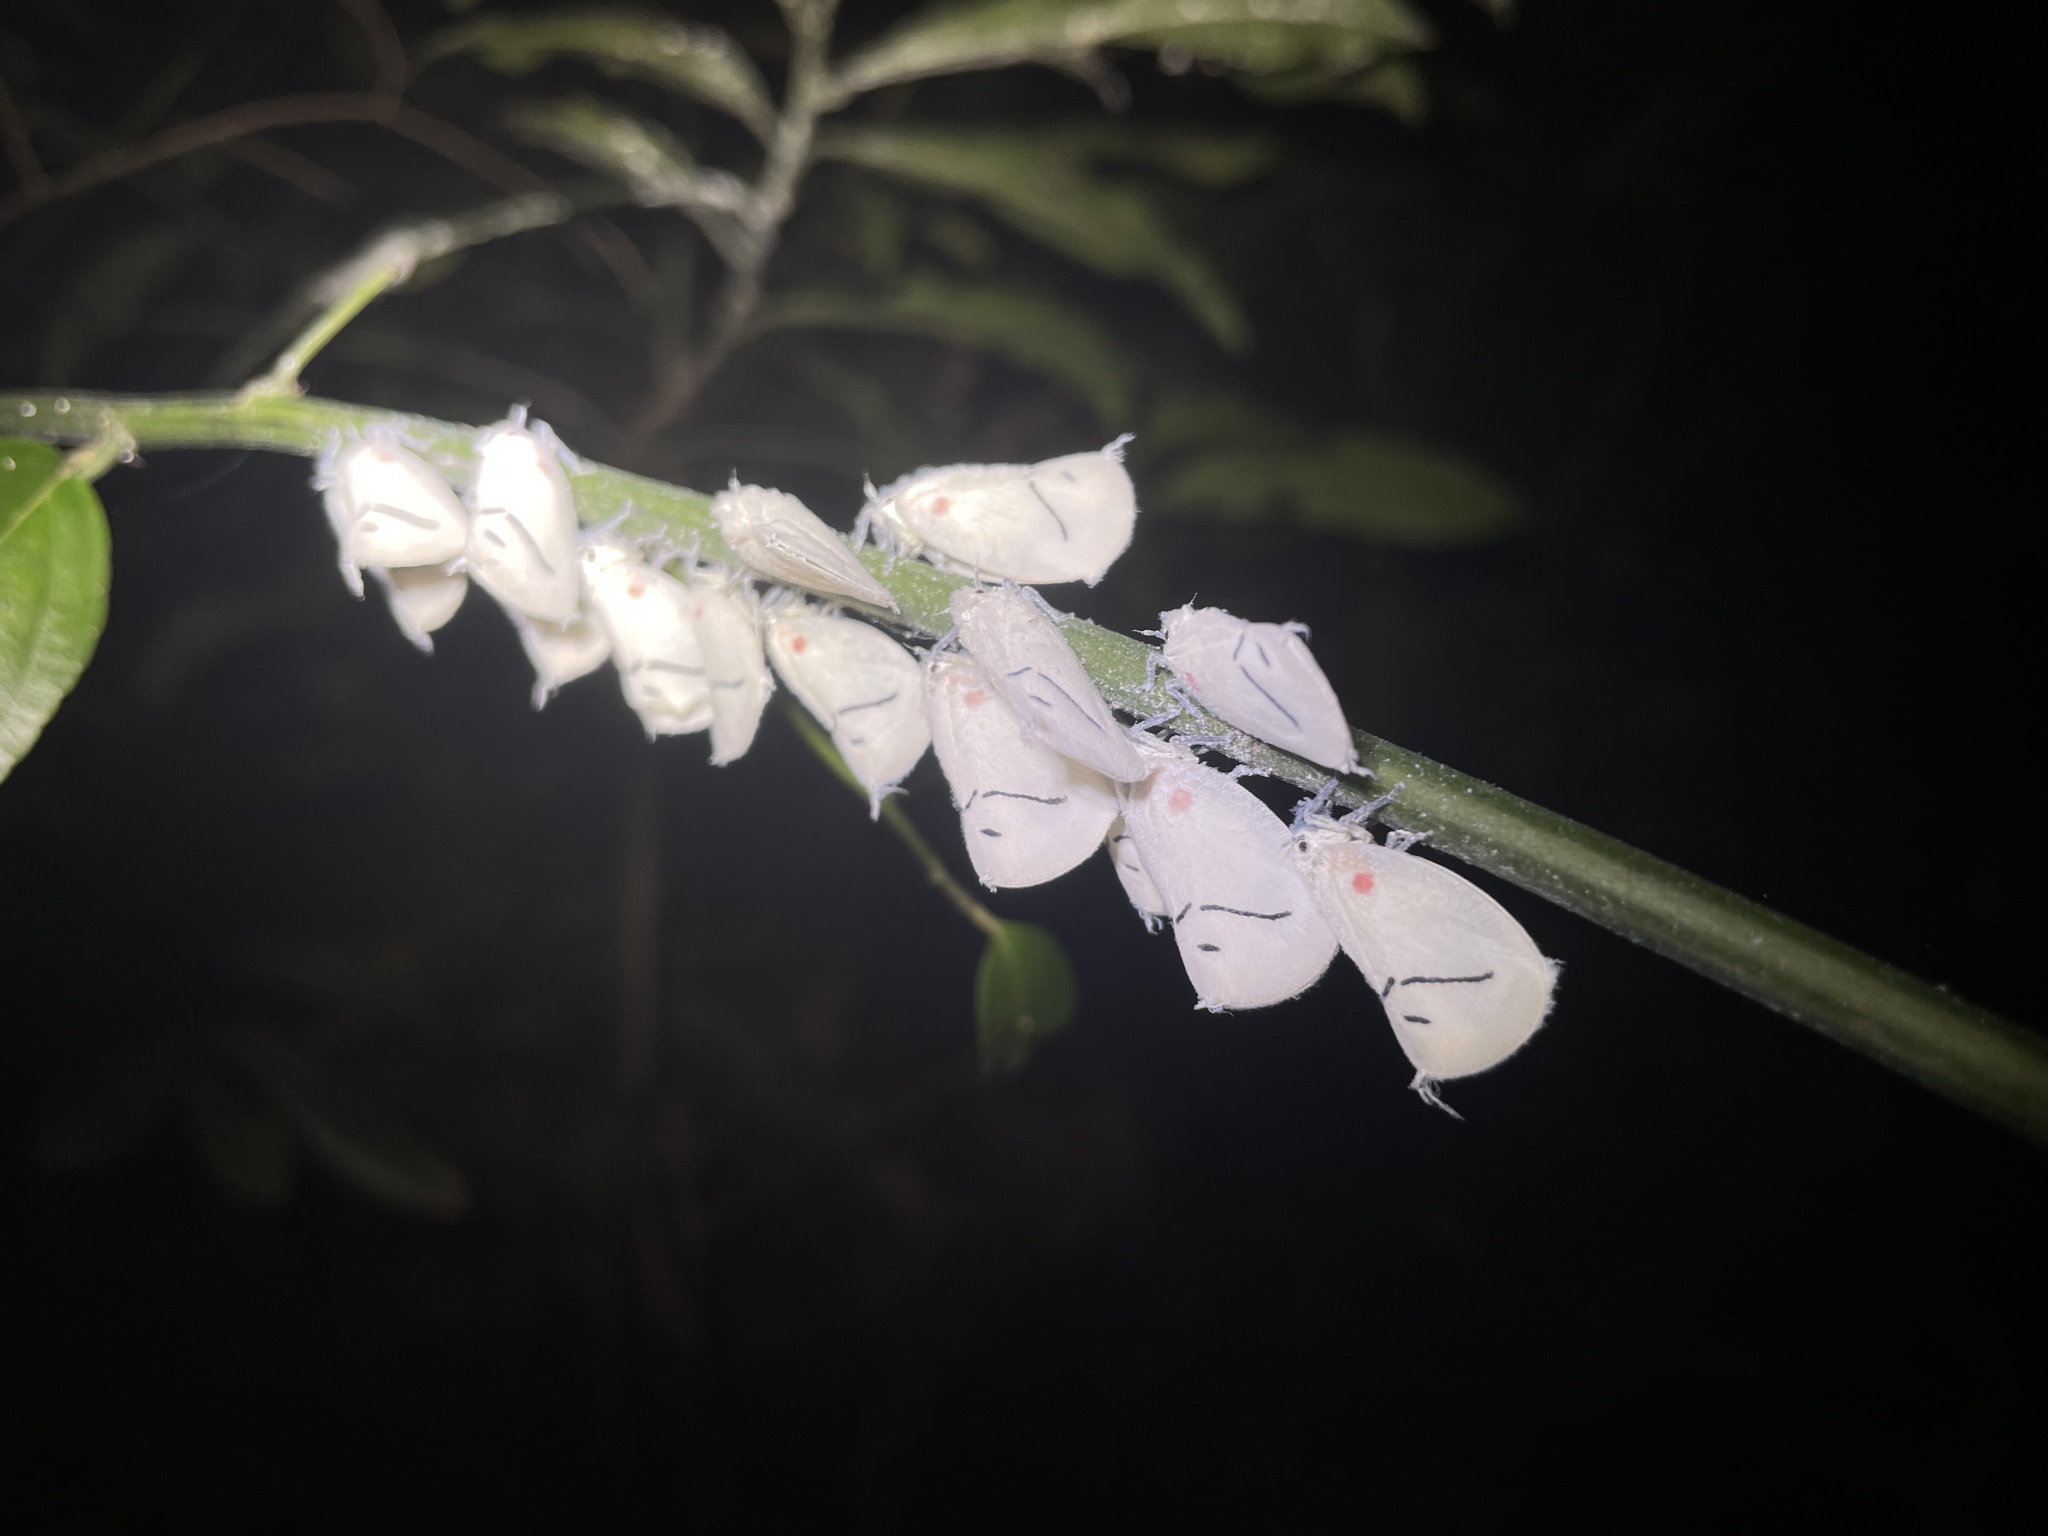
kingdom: Animalia
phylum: Arthropoda
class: Insecta
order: Hemiptera
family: Flatidae
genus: Cerynia
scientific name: Cerynia maria
